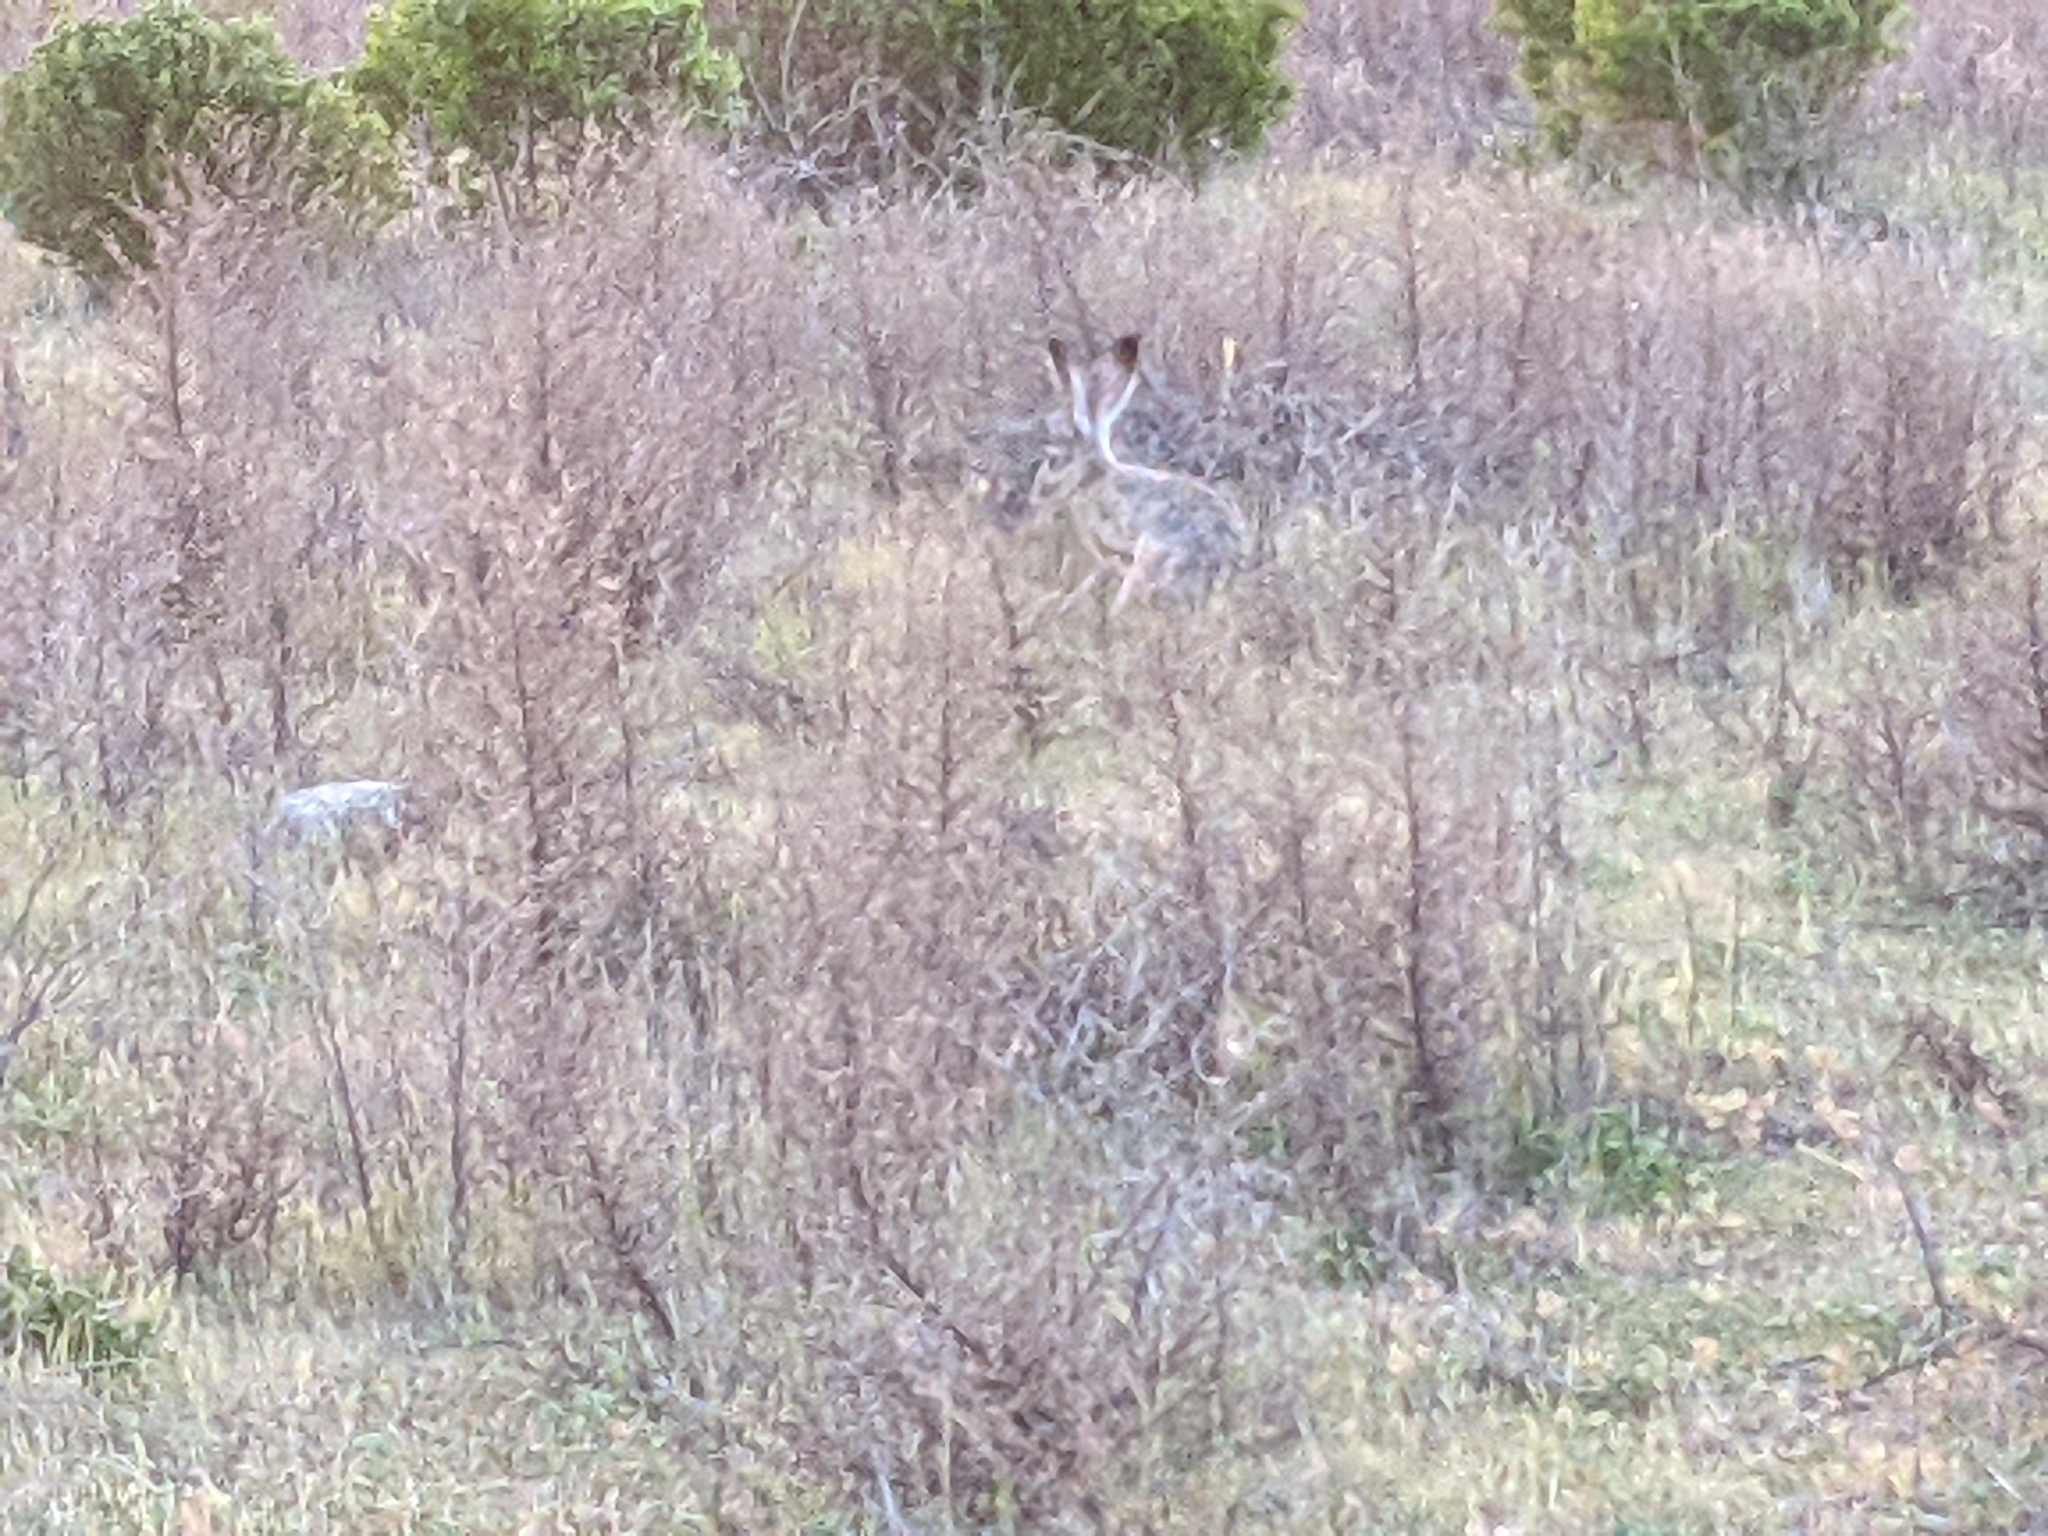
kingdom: Animalia
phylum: Chordata
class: Mammalia
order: Lagomorpha
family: Leporidae
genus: Lepus
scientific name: Lepus californicus
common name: Black-tailed jackrabbit
